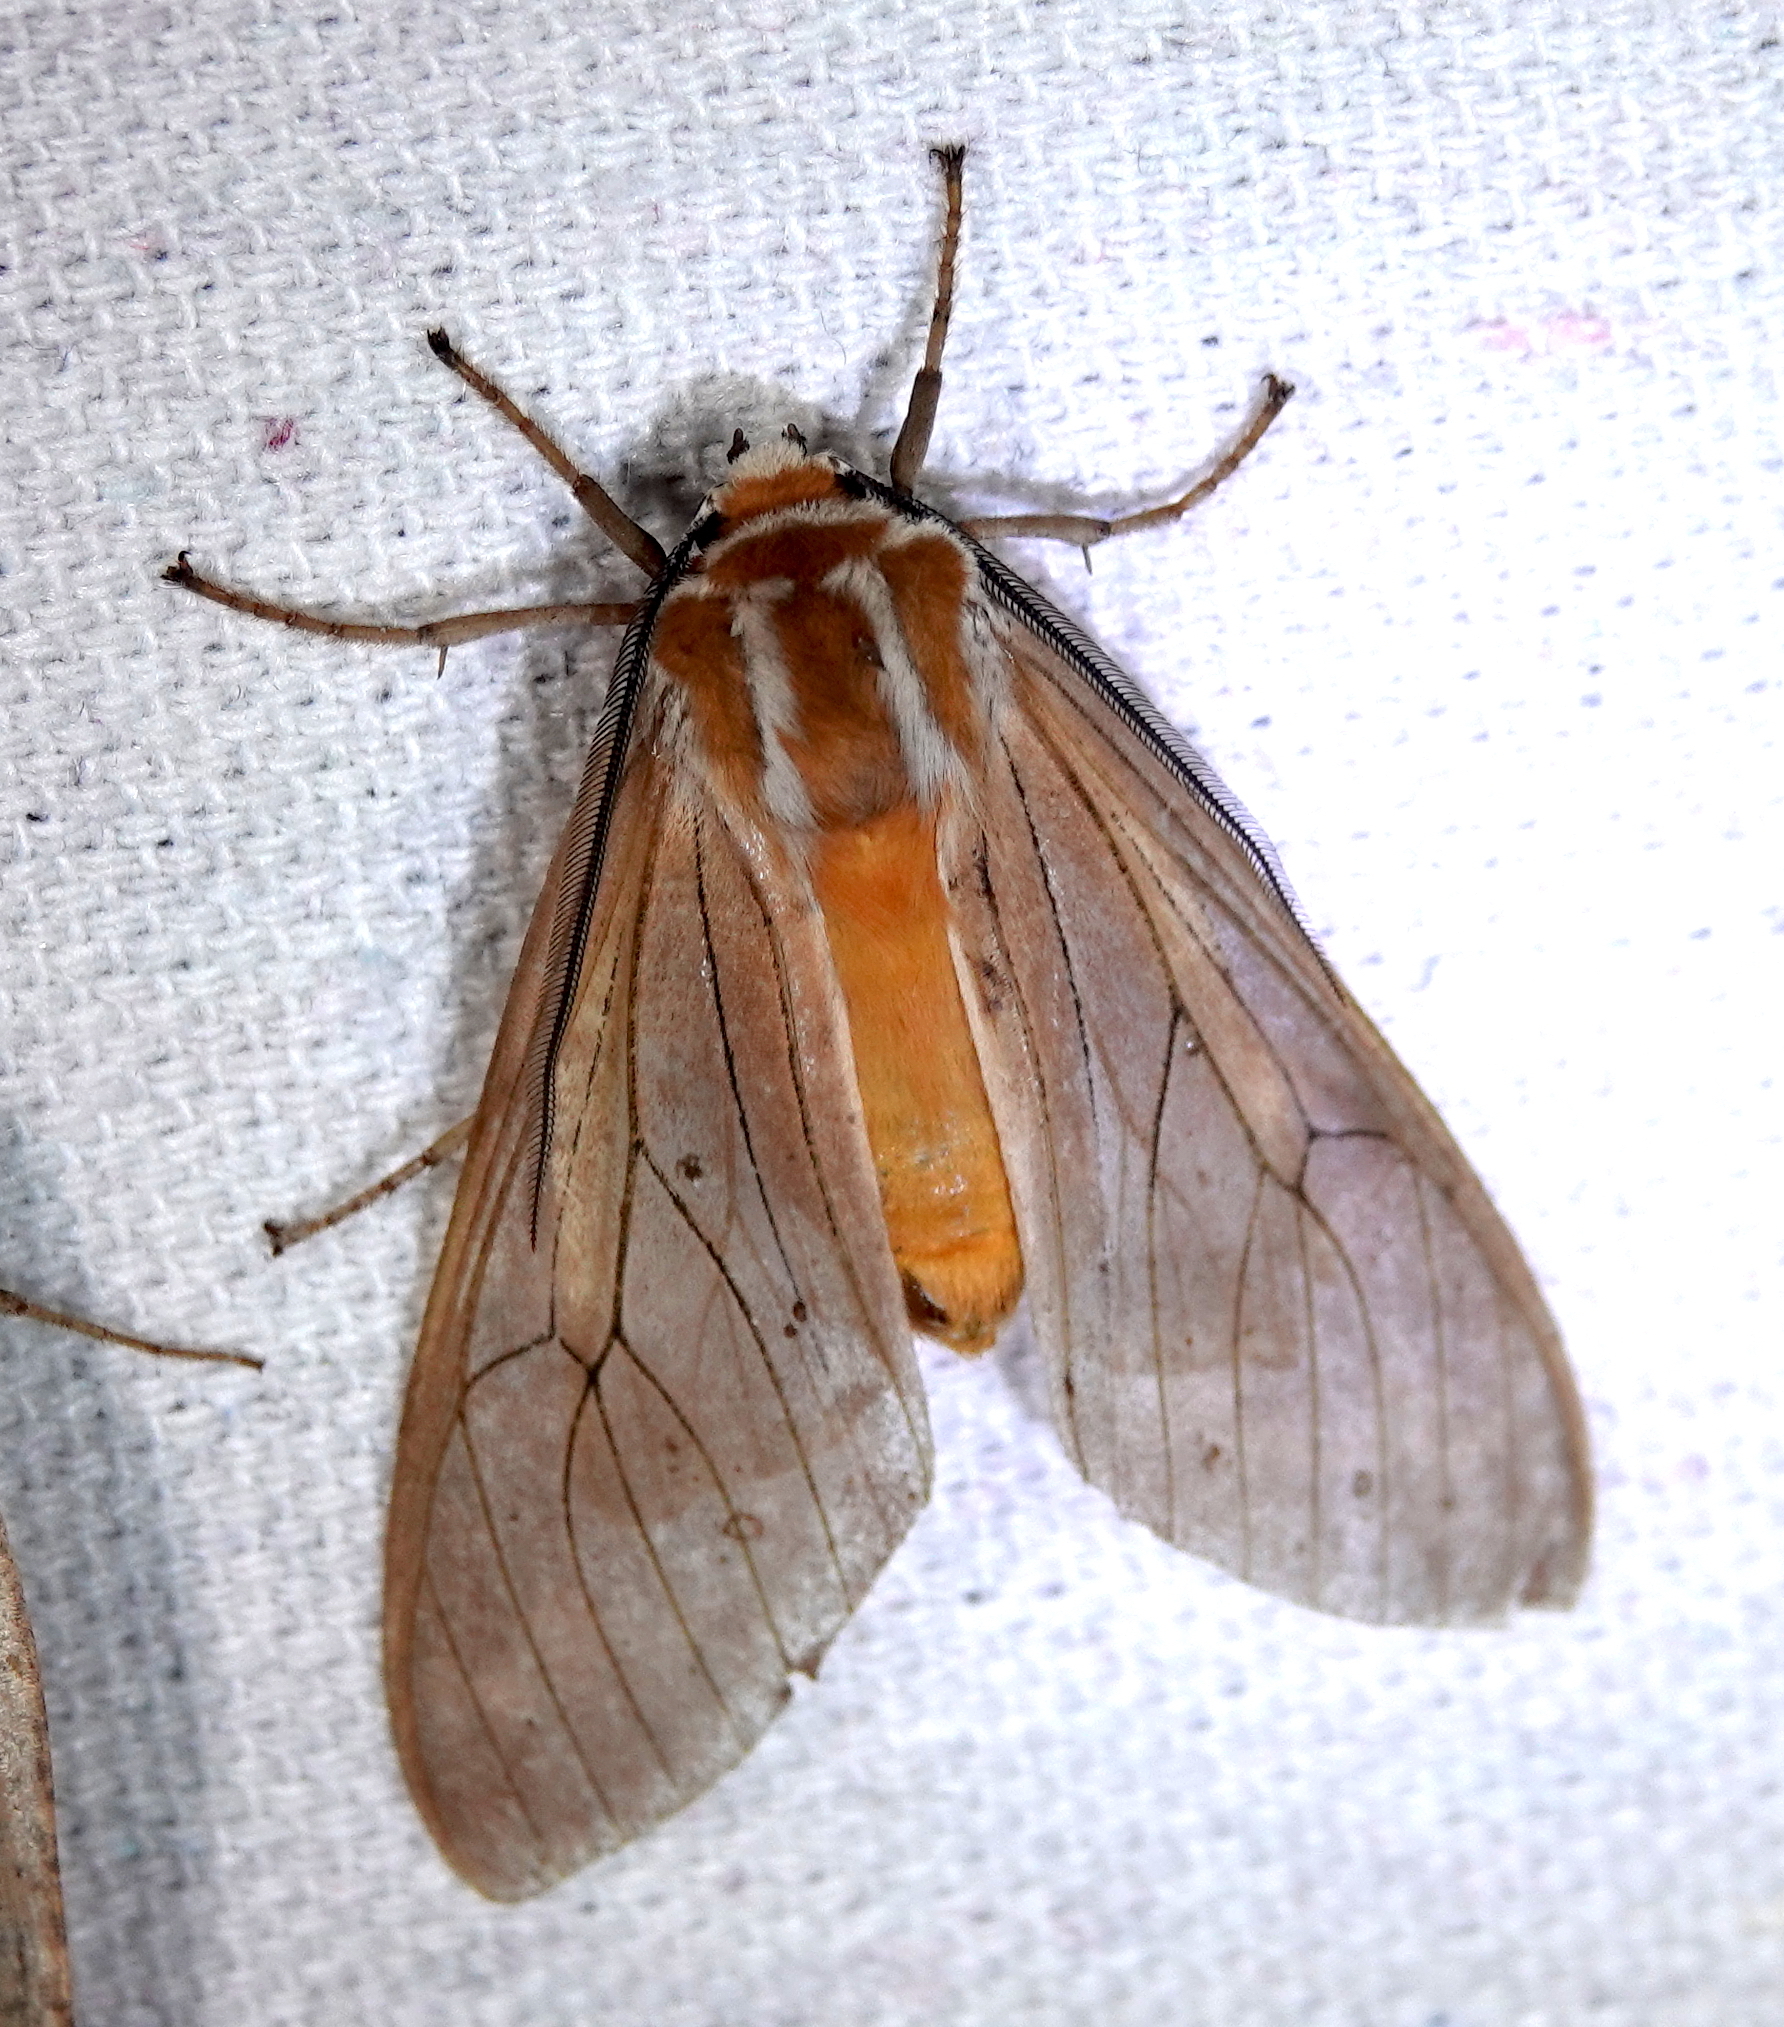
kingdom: Animalia
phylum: Arthropoda
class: Insecta
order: Lepidoptera
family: Erebidae
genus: Amastus
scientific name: Amastus coprophora
